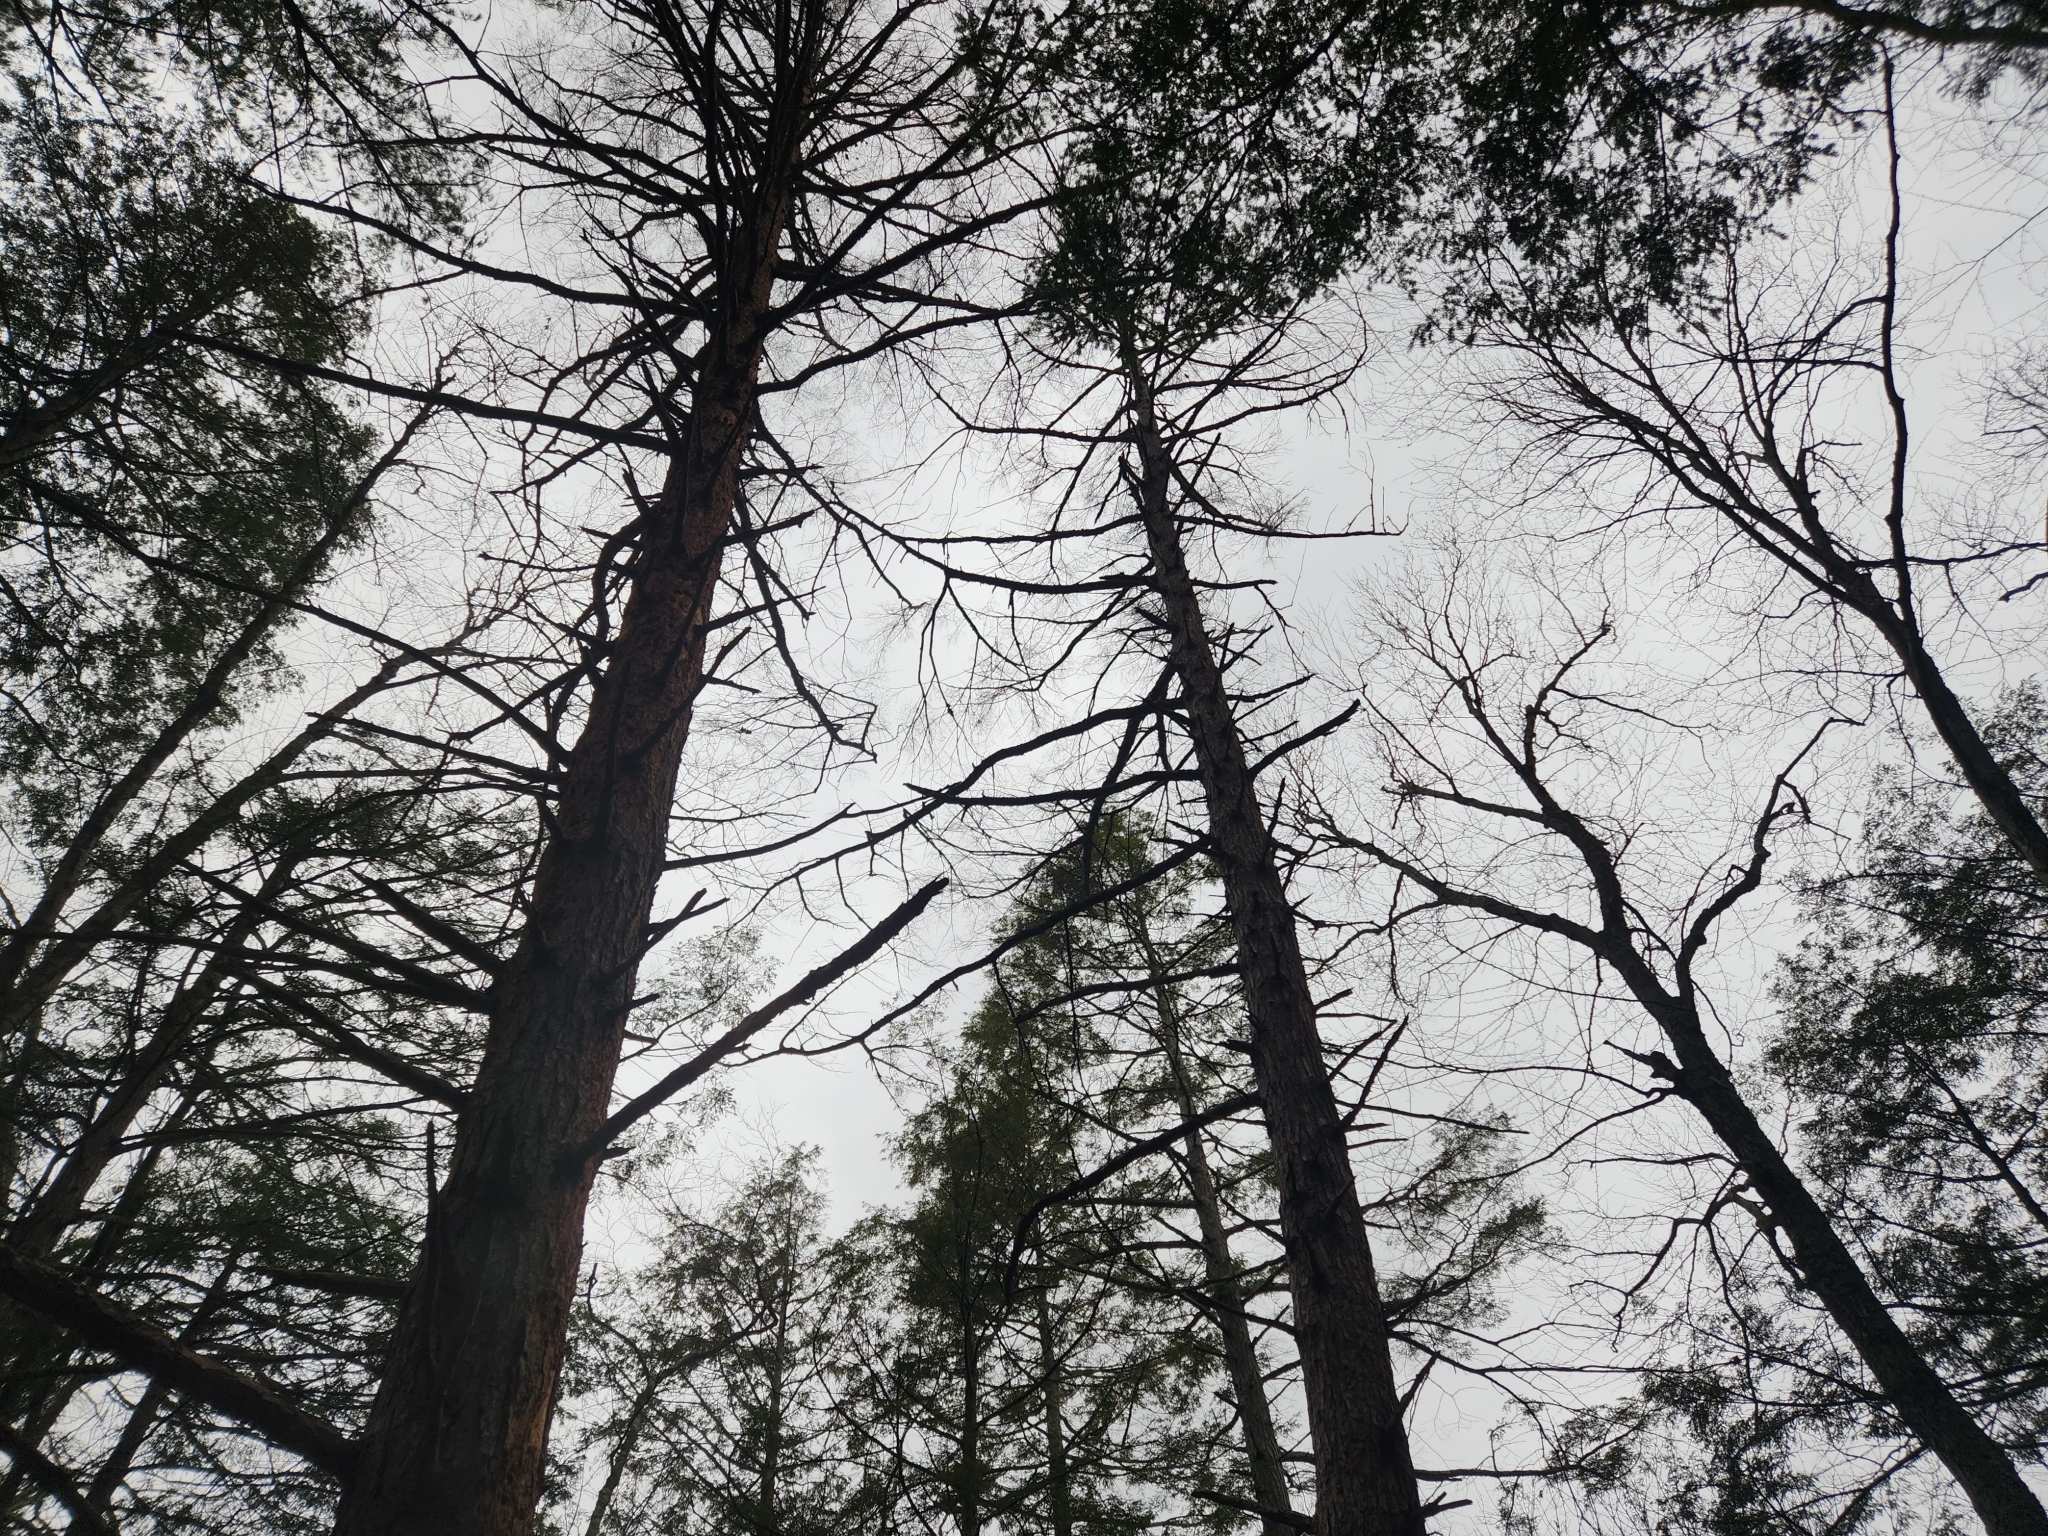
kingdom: Plantae
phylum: Tracheophyta
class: Pinopsida
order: Pinales
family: Pinaceae
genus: Tsuga
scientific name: Tsuga canadensis
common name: Eastern hemlock
